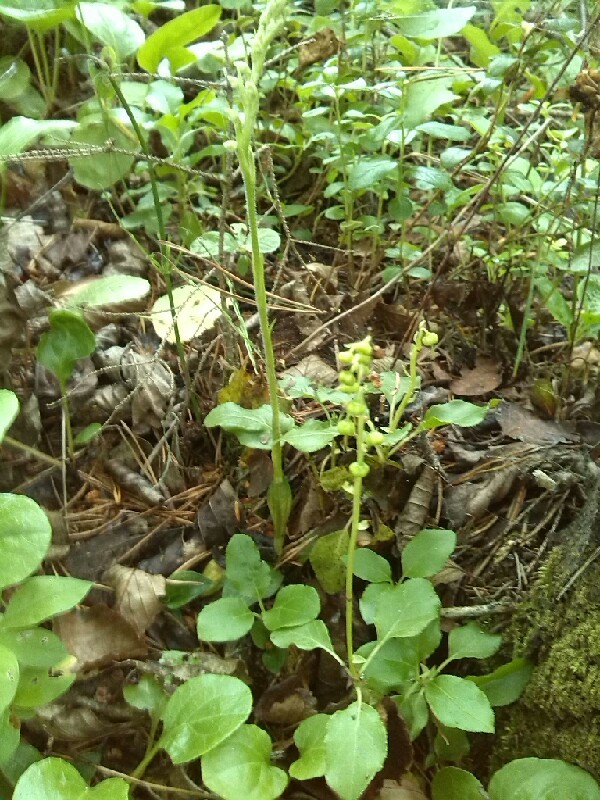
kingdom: Plantae
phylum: Tracheophyta
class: Liliopsida
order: Asparagales
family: Orchidaceae
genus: Goodyera
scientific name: Goodyera repens
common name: Creeping lady's-tresses
